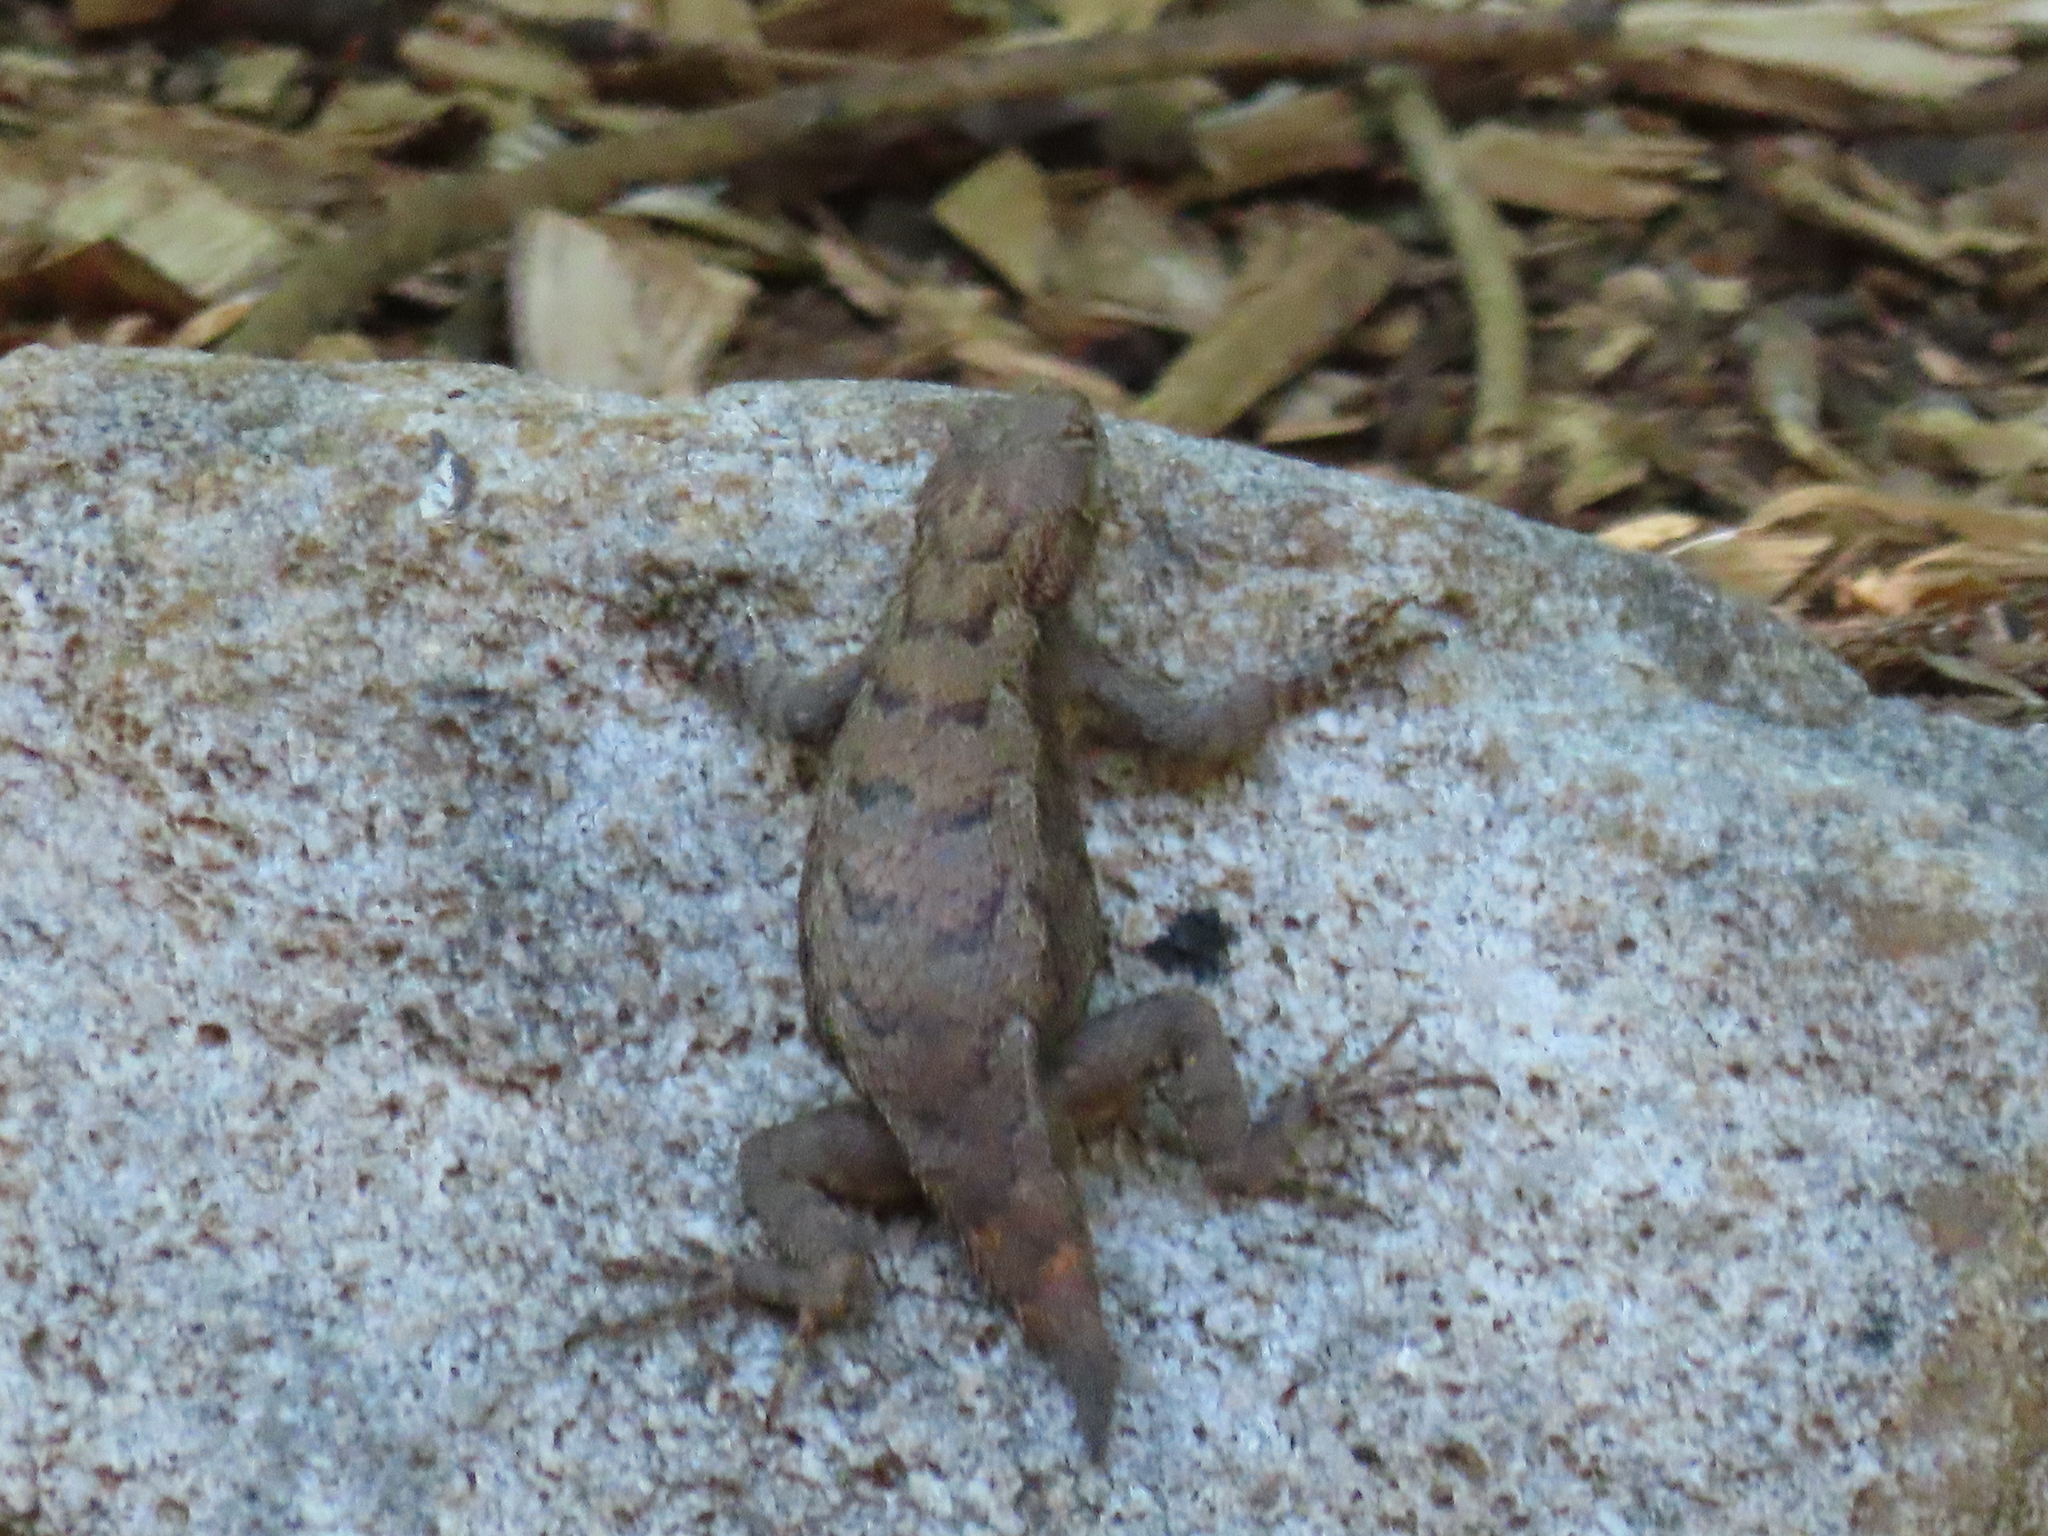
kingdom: Animalia
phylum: Chordata
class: Squamata
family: Phrynosomatidae
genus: Sceloporus
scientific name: Sceloporus undulatus
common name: Eastern fence lizard
